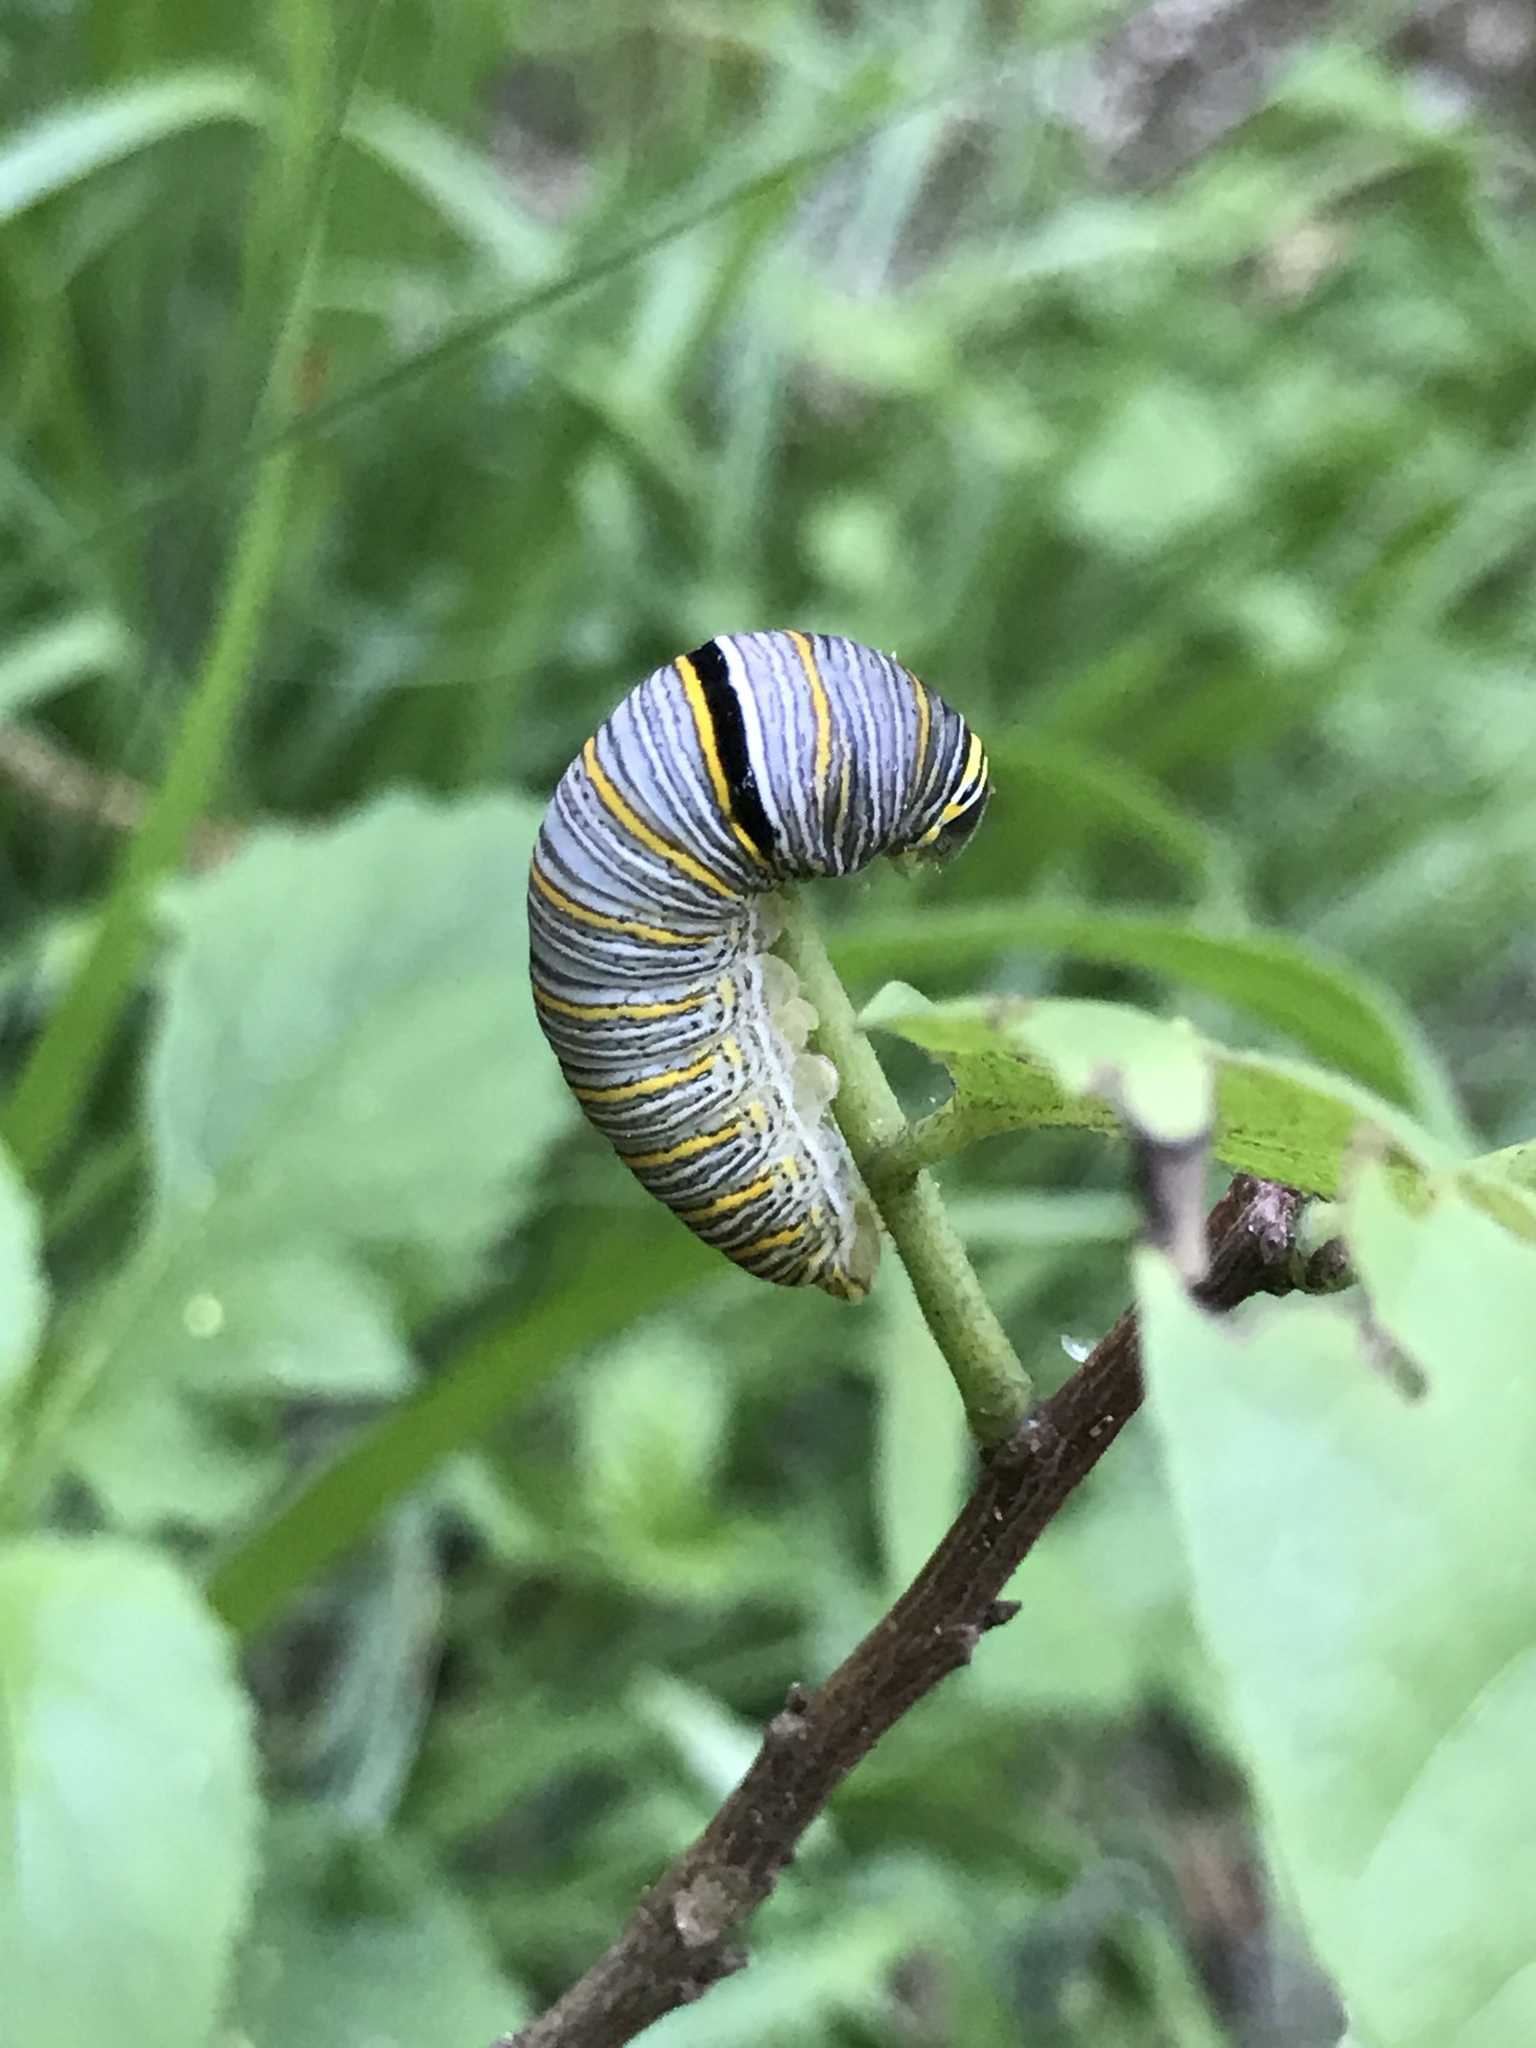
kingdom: Animalia
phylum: Arthropoda
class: Insecta
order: Lepidoptera
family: Papilionidae
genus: Protographium
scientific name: Protographium marcellus
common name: Zebra swallowtail
